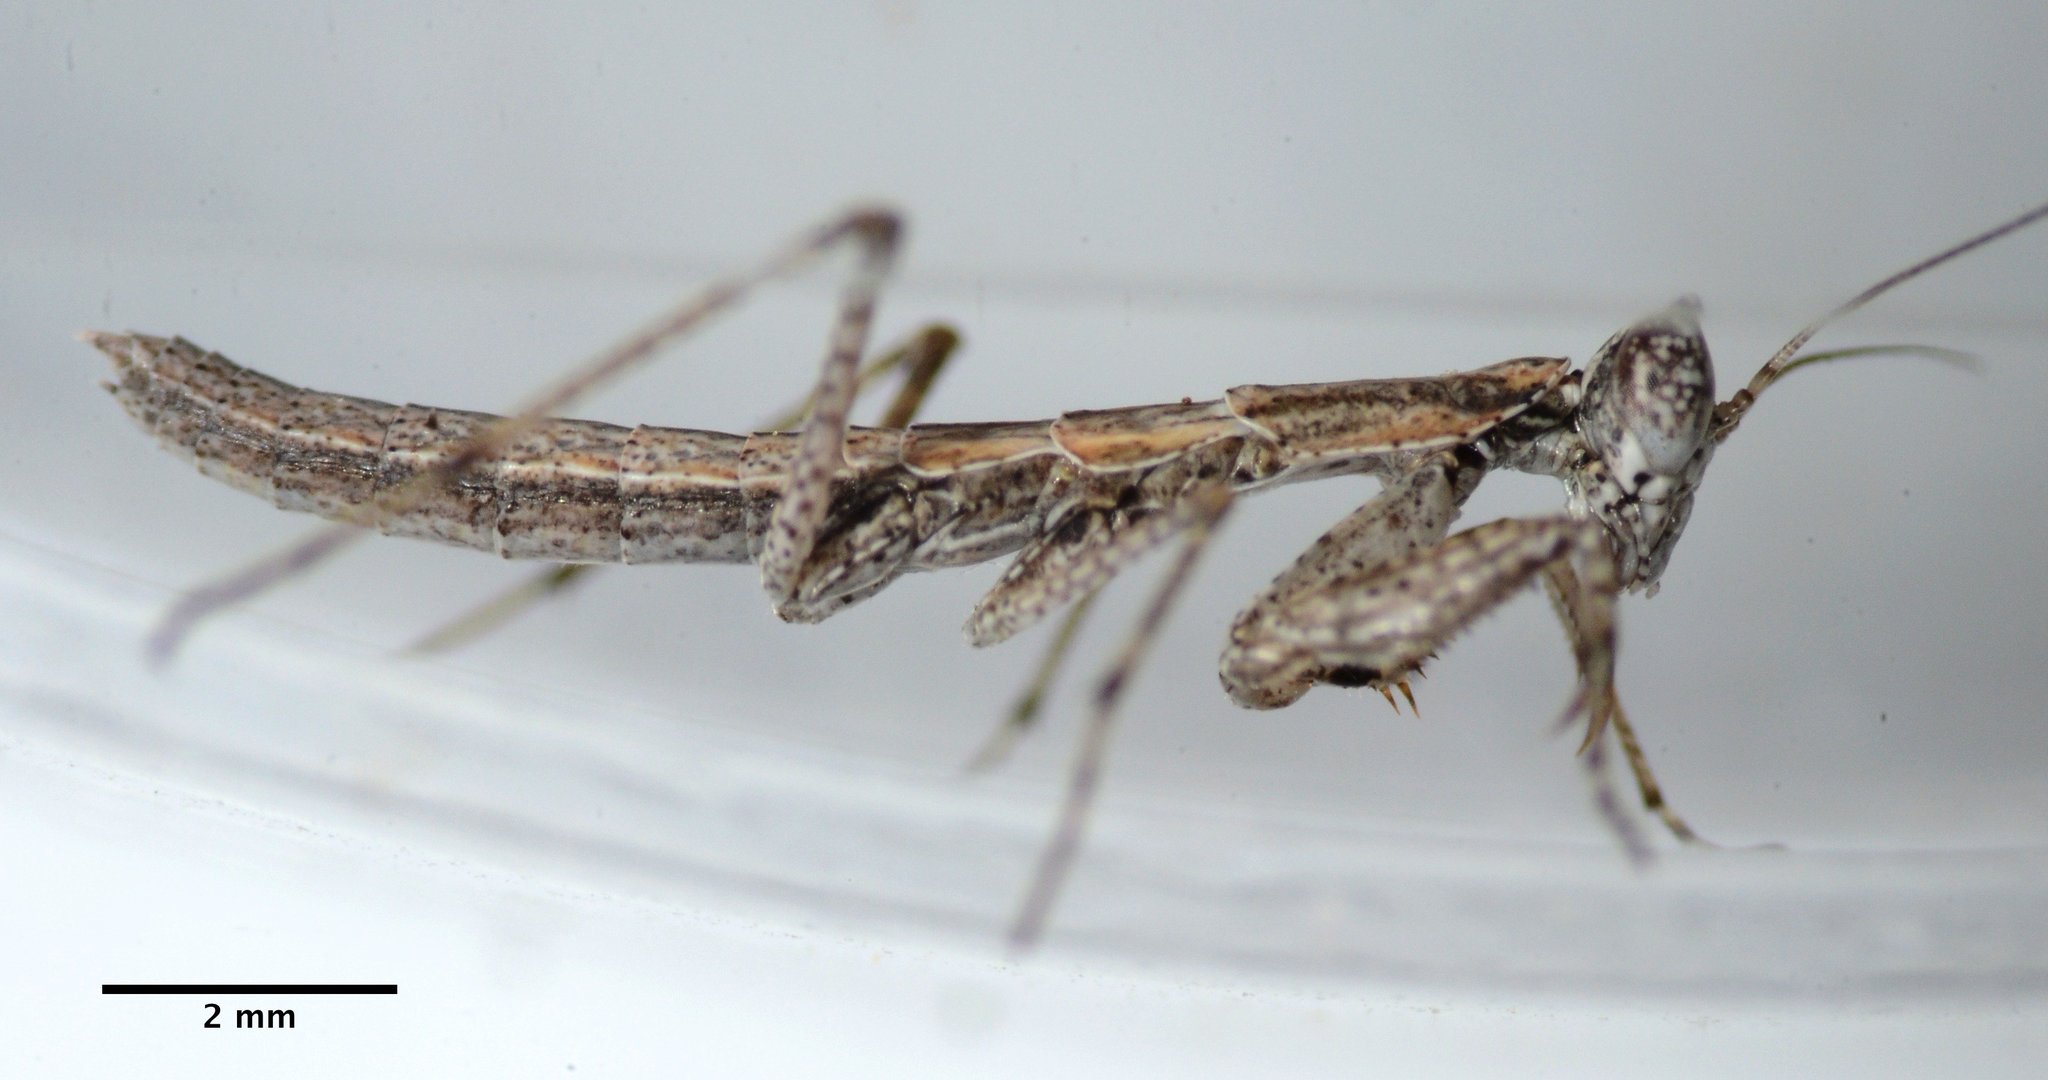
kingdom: Animalia
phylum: Arthropoda
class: Insecta
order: Mantodea
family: Amelidae
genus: Litaneutria
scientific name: Litaneutria pacifica
